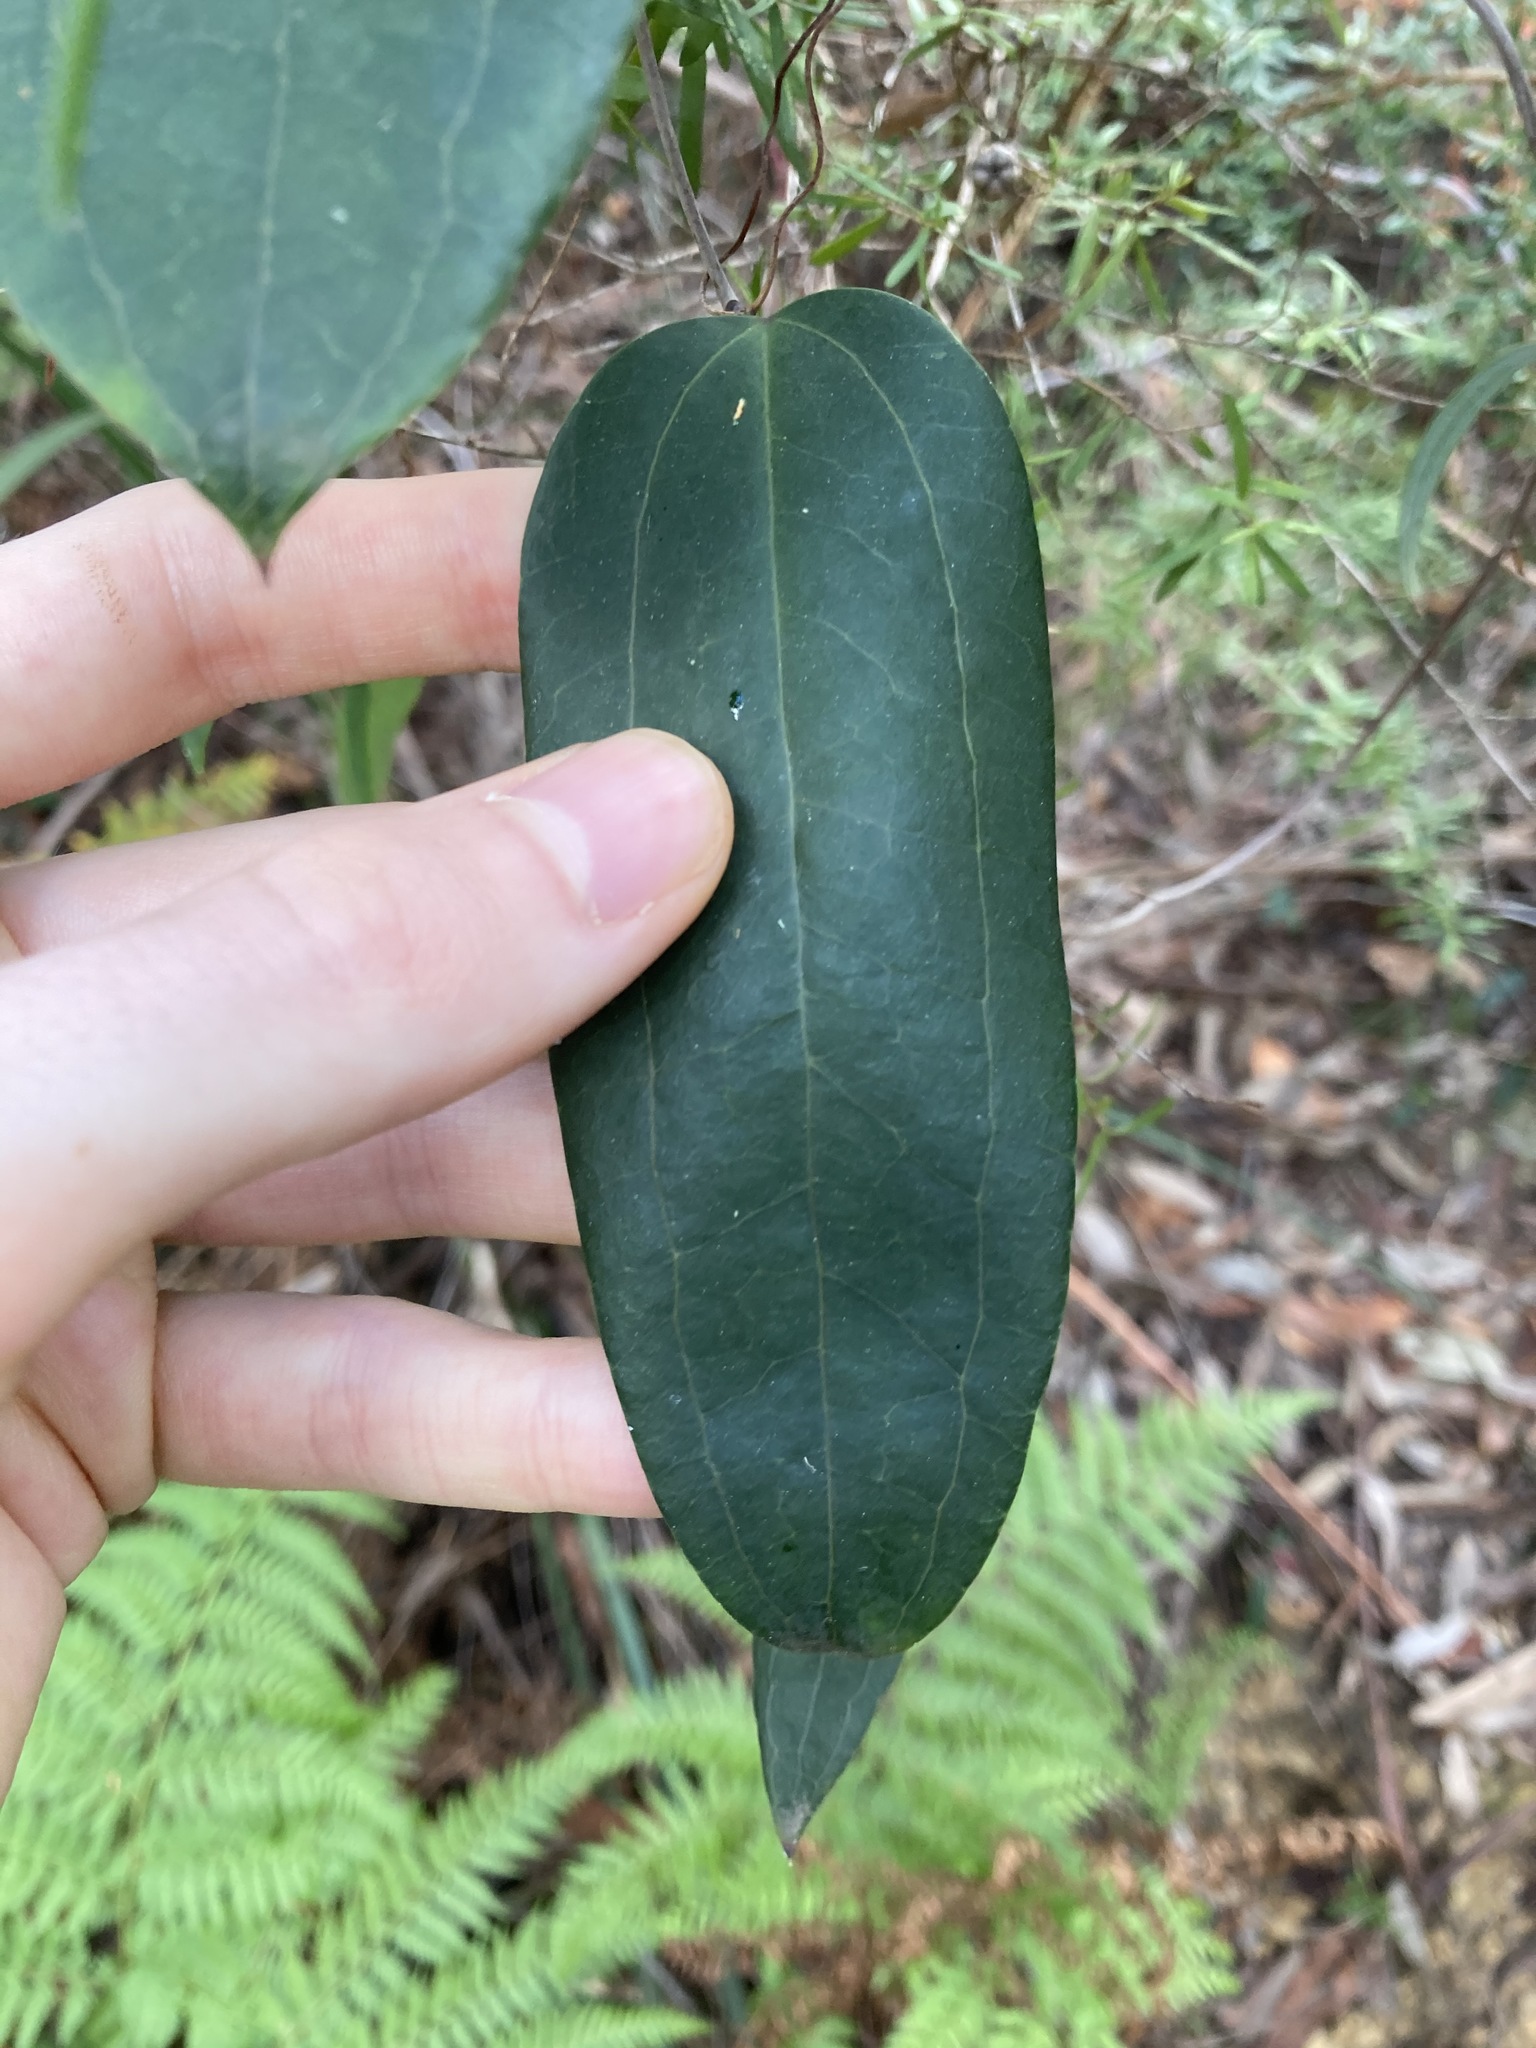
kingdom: Plantae
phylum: Tracheophyta
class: Liliopsida
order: Liliales
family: Smilacaceae
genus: Smilax
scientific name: Smilax glyciphylla
